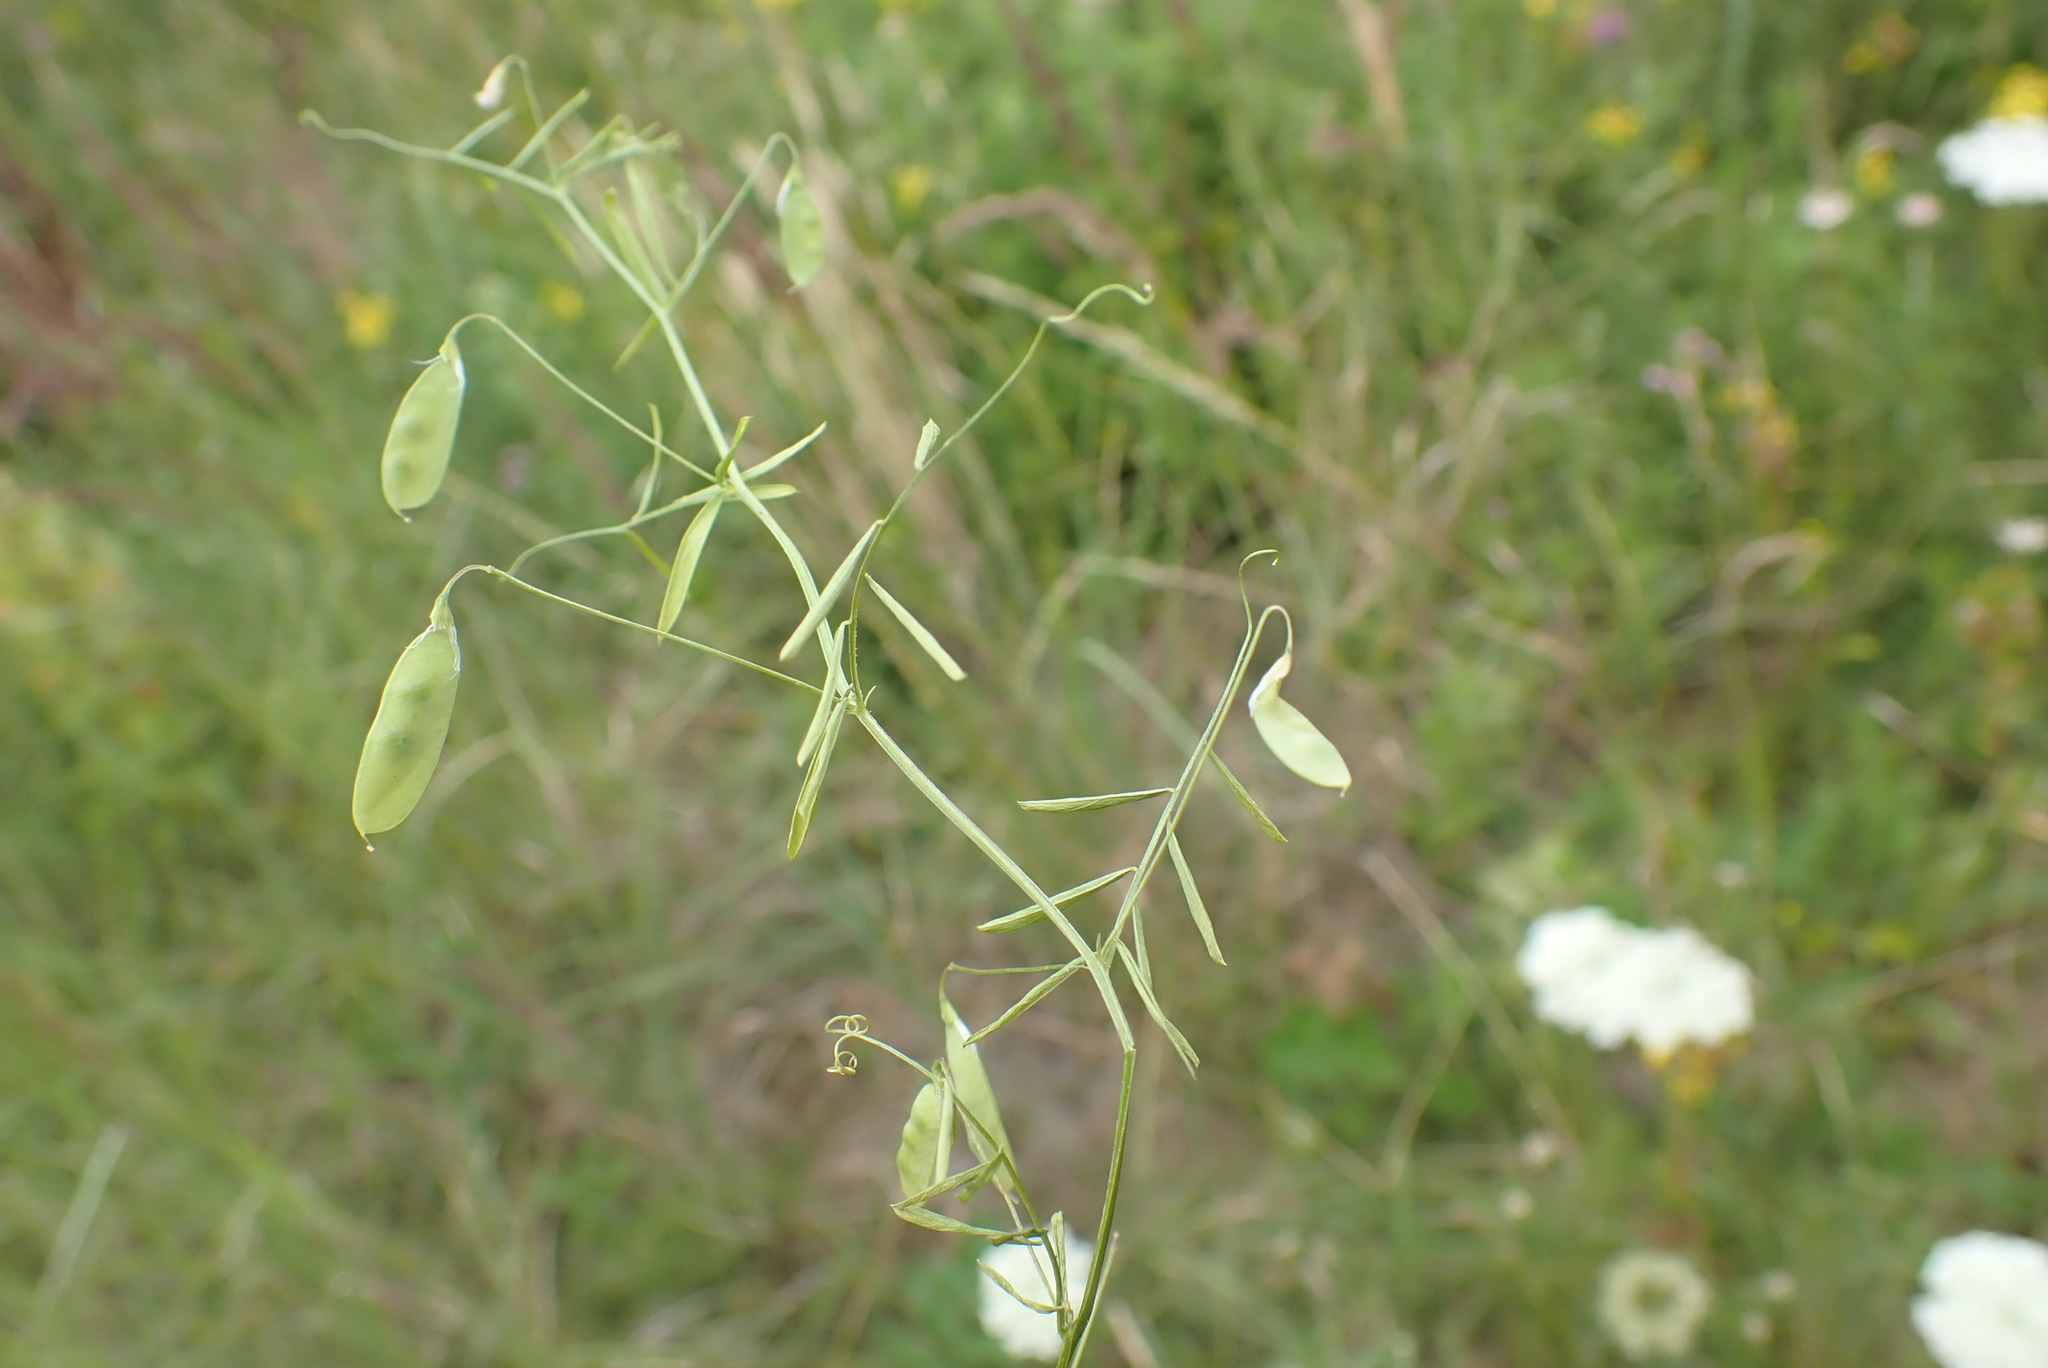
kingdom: Plantae
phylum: Tracheophyta
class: Magnoliopsida
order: Fabales
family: Fabaceae
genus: Vicia
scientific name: Vicia tetrasperma
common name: Smooth tare
